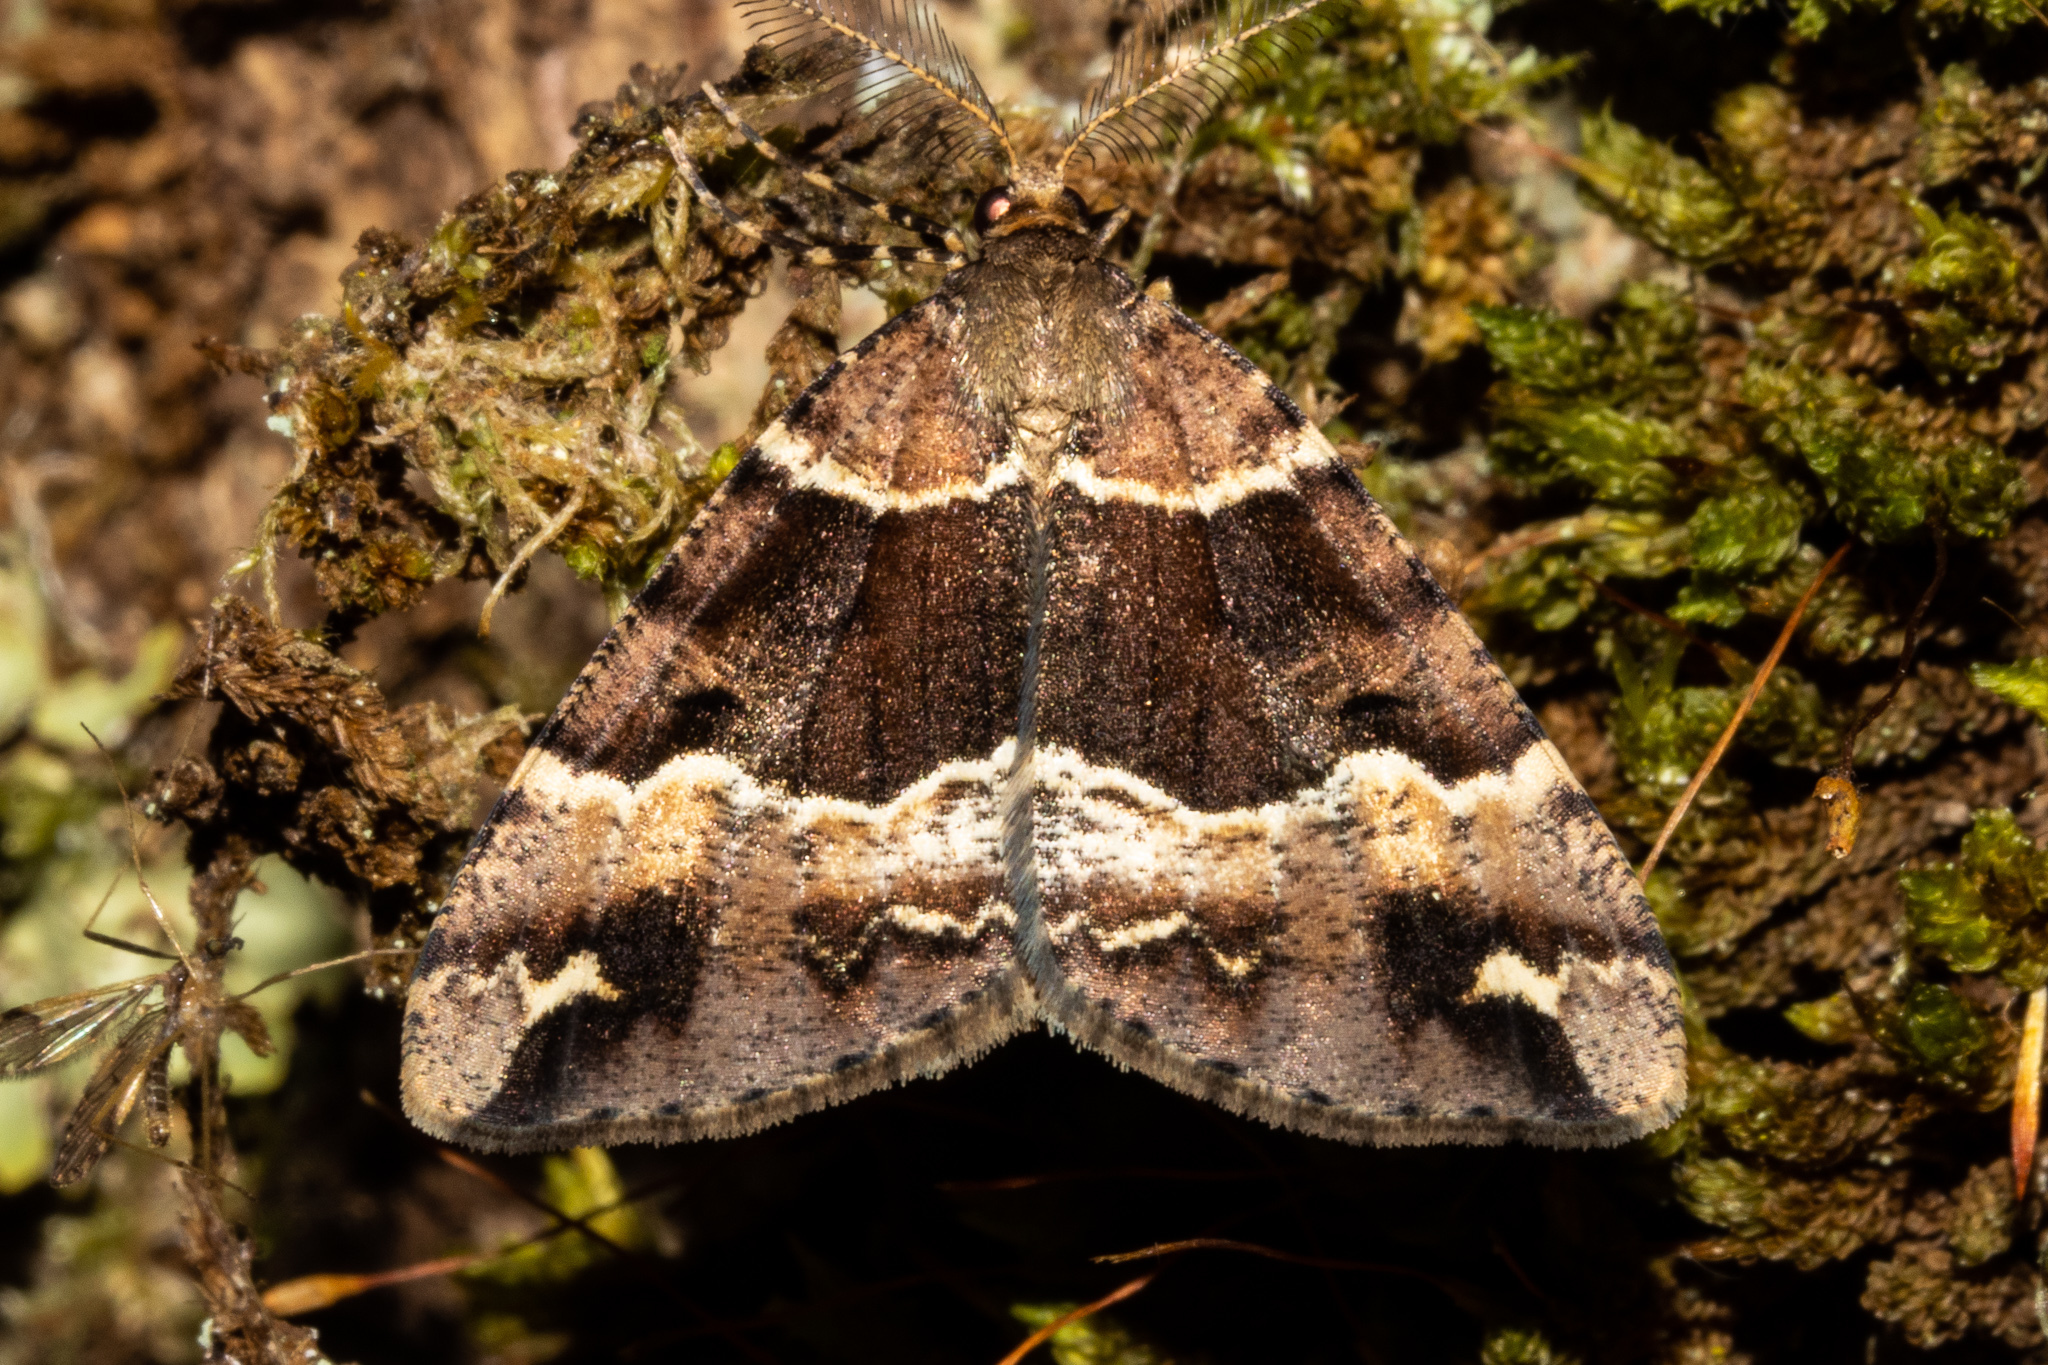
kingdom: Animalia
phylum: Arthropoda
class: Insecta
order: Lepidoptera
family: Geometridae
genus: Pseudocoremia
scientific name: Pseudocoremia fascialata
